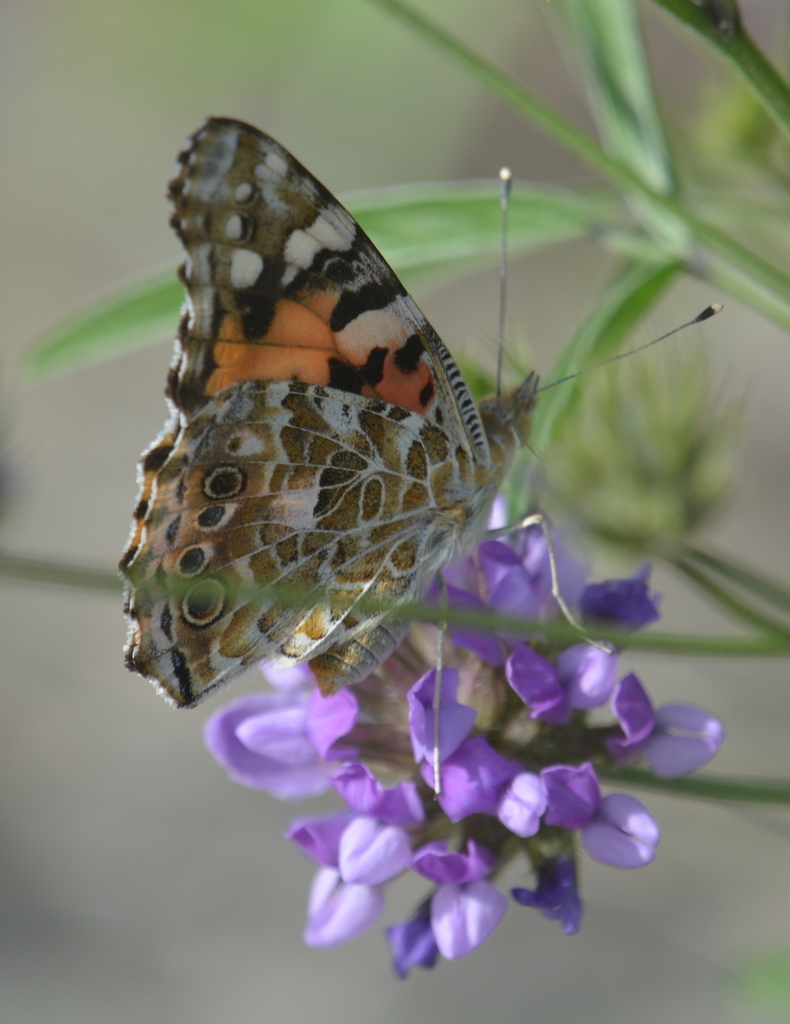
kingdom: Animalia
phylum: Arthropoda
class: Insecta
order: Lepidoptera
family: Nymphalidae
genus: Vanessa
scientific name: Vanessa cardui
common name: Painted lady
